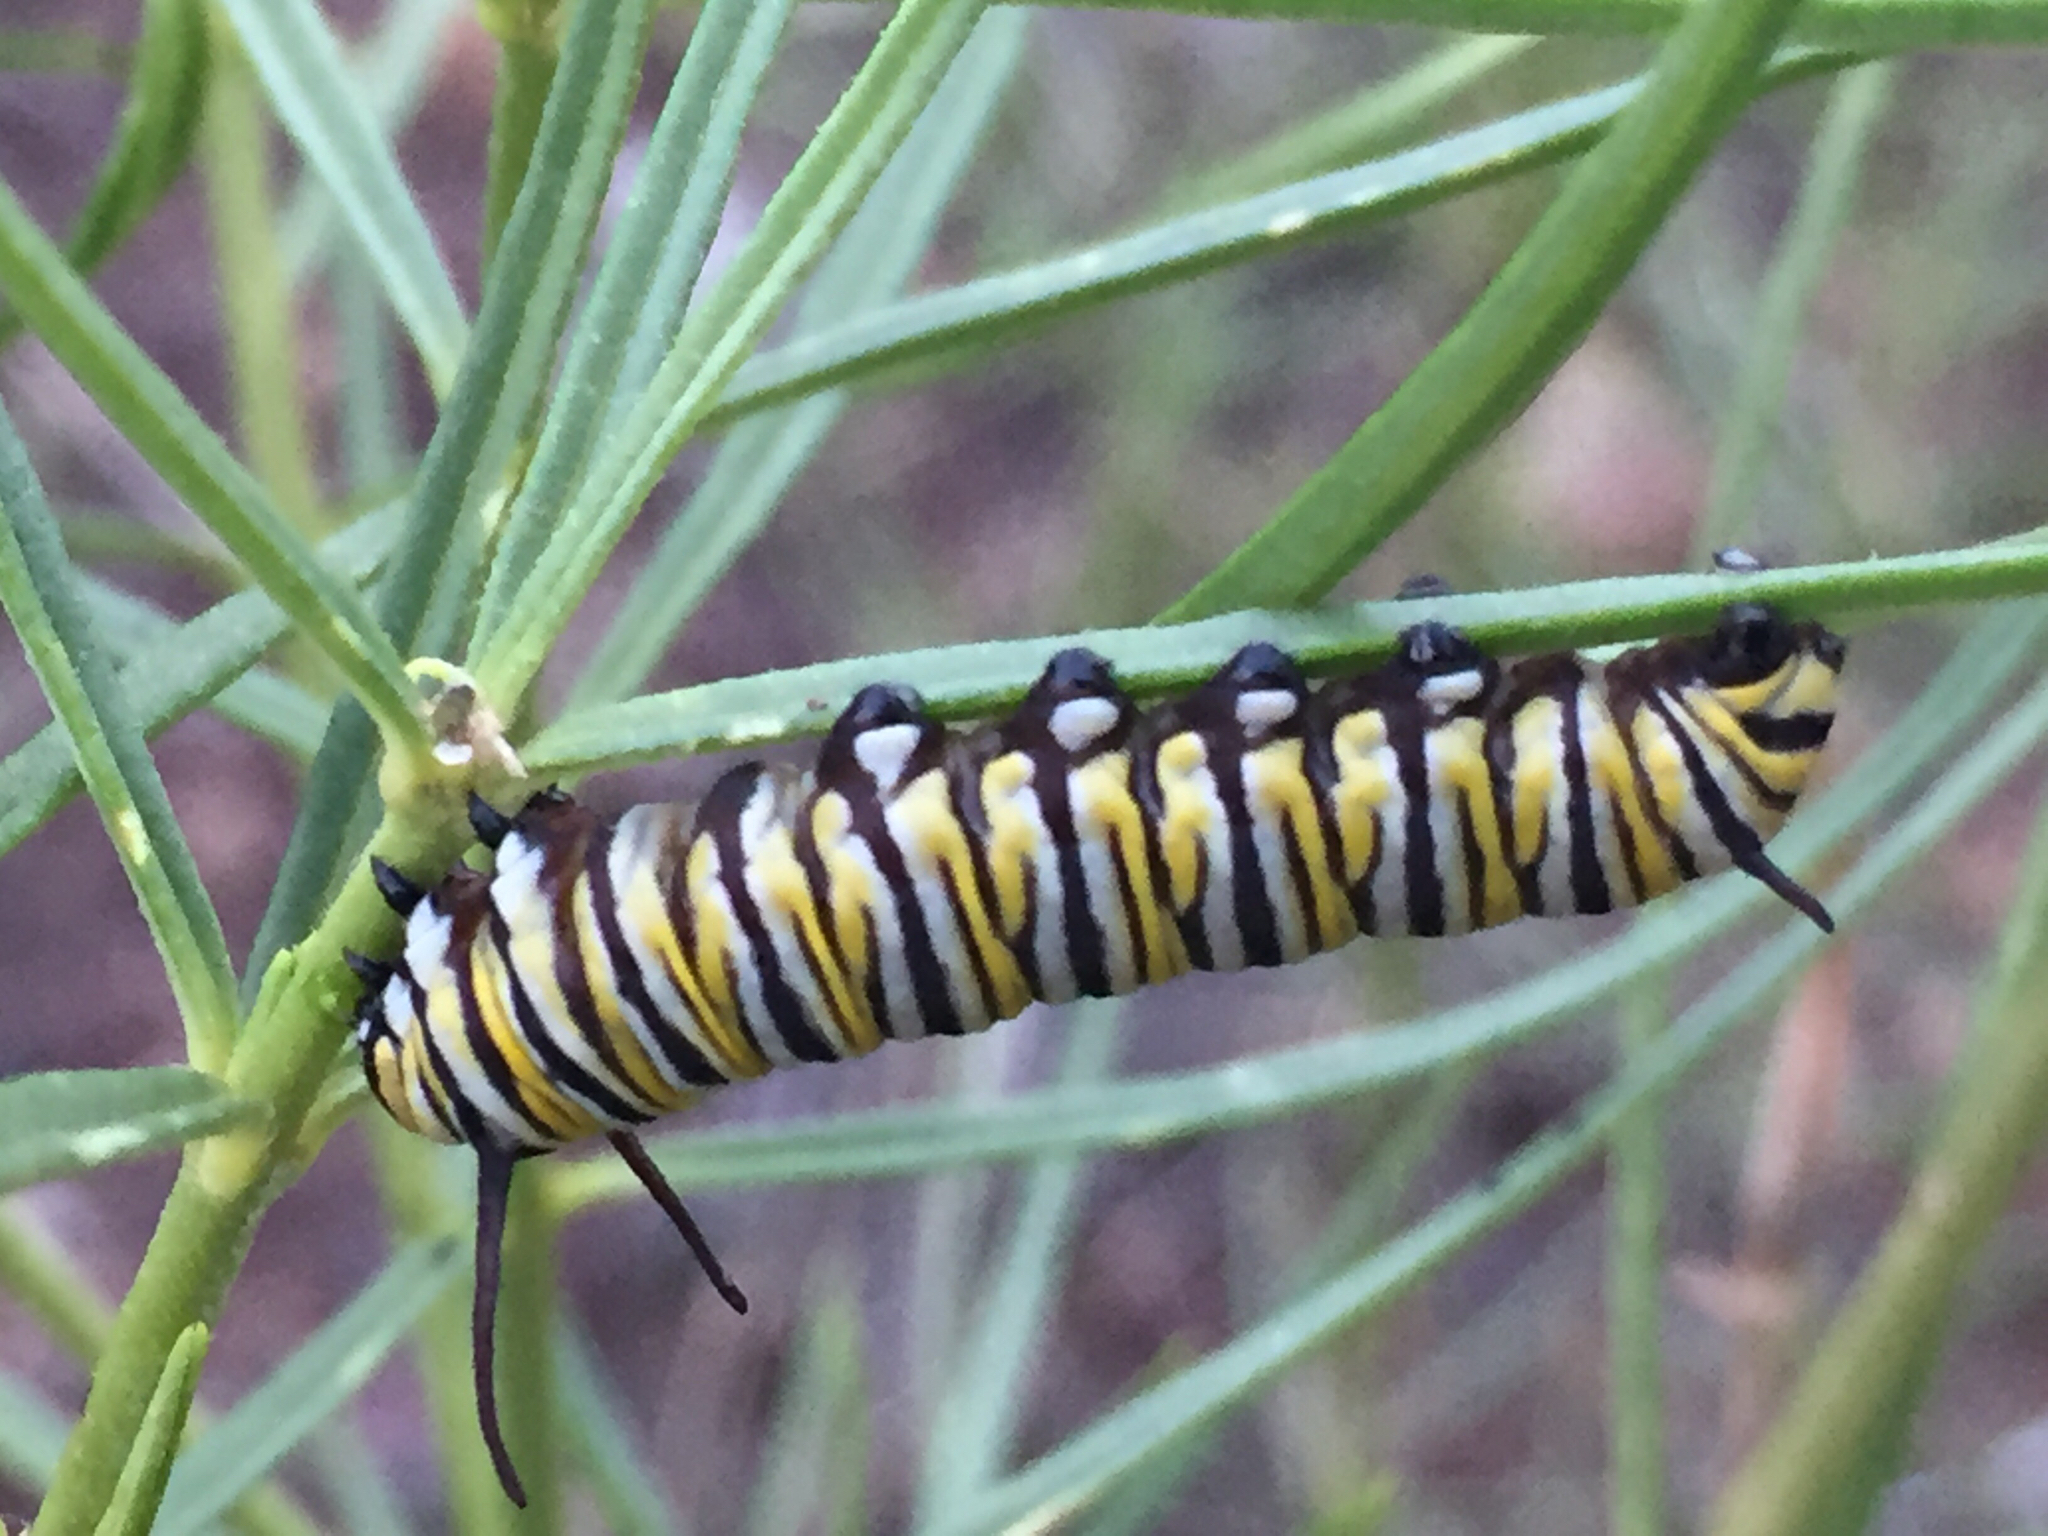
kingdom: Animalia
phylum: Arthropoda
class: Insecta
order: Lepidoptera
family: Nymphalidae
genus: Danaus
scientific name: Danaus plexippus
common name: Monarch
